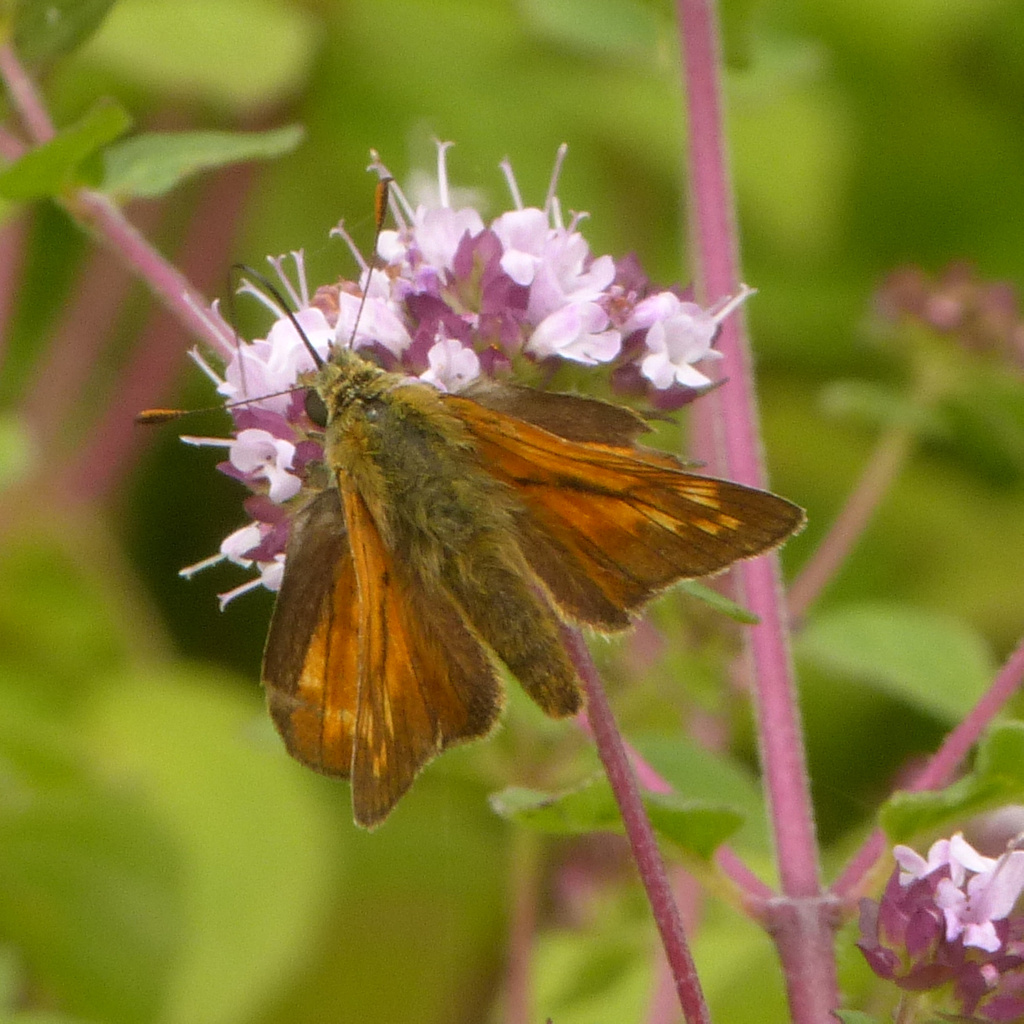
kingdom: Animalia
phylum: Arthropoda
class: Insecta
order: Lepidoptera
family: Hesperiidae
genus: Ochlodes
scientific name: Ochlodes venata
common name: Large skipper
